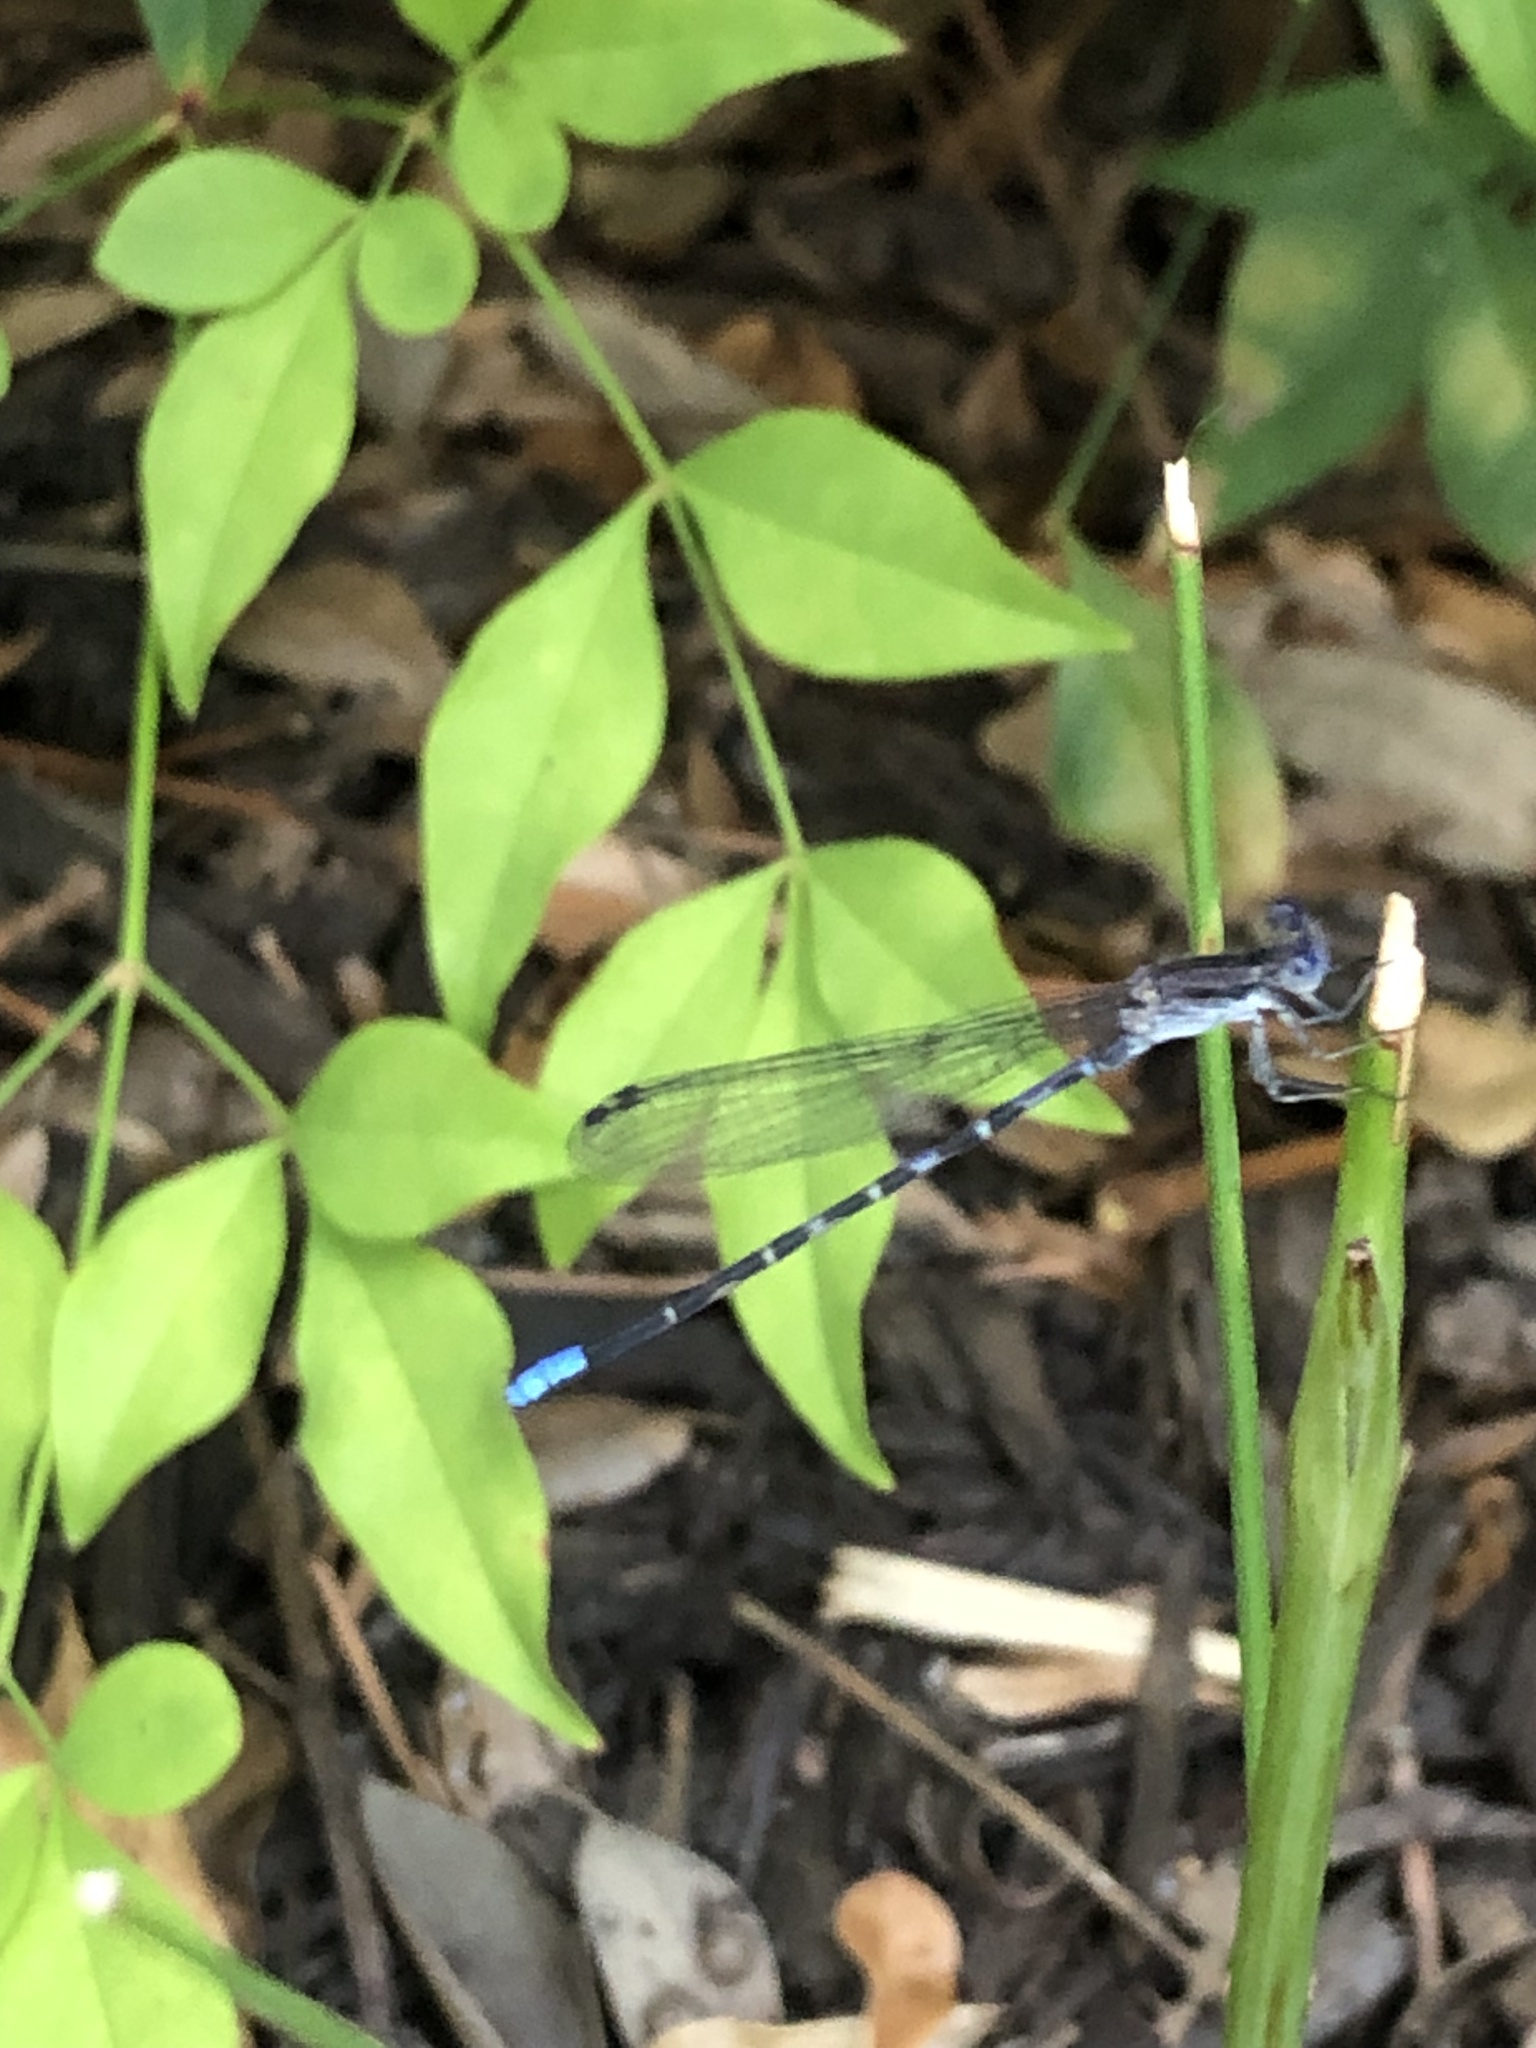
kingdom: Animalia
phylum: Arthropoda
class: Insecta
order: Odonata
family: Coenagrionidae
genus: Argia
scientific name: Argia immunda
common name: Kiowa dancer
